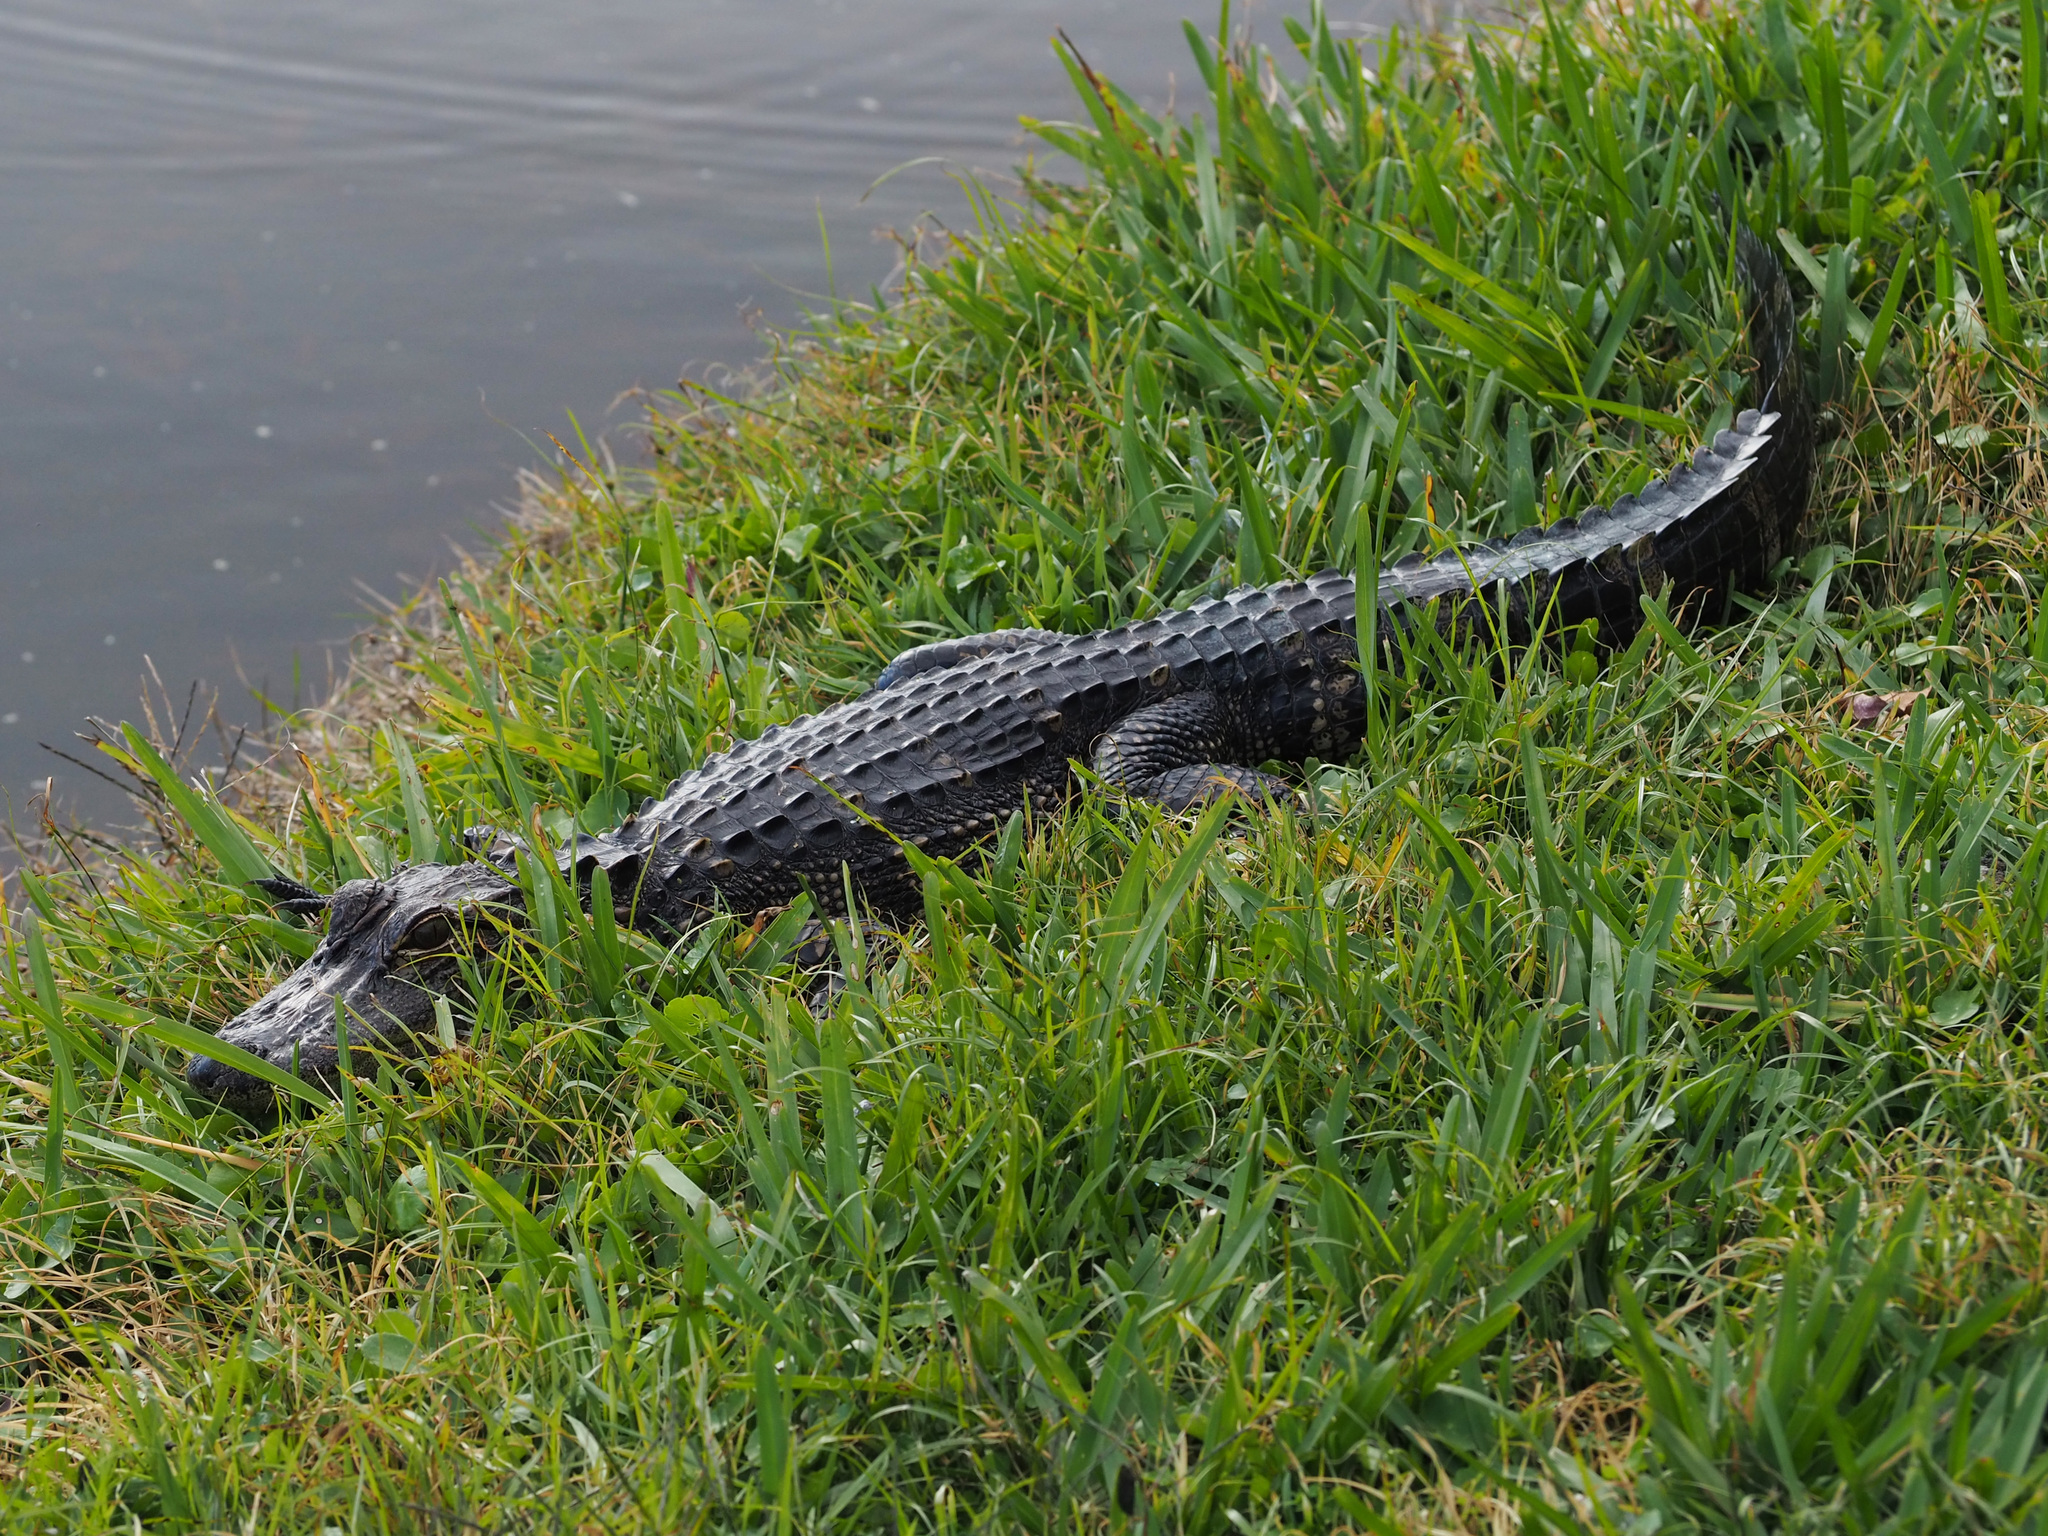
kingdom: Animalia
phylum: Chordata
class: Crocodylia
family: Alligatoridae
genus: Alligator
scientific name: Alligator mississippiensis
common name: American alligator
